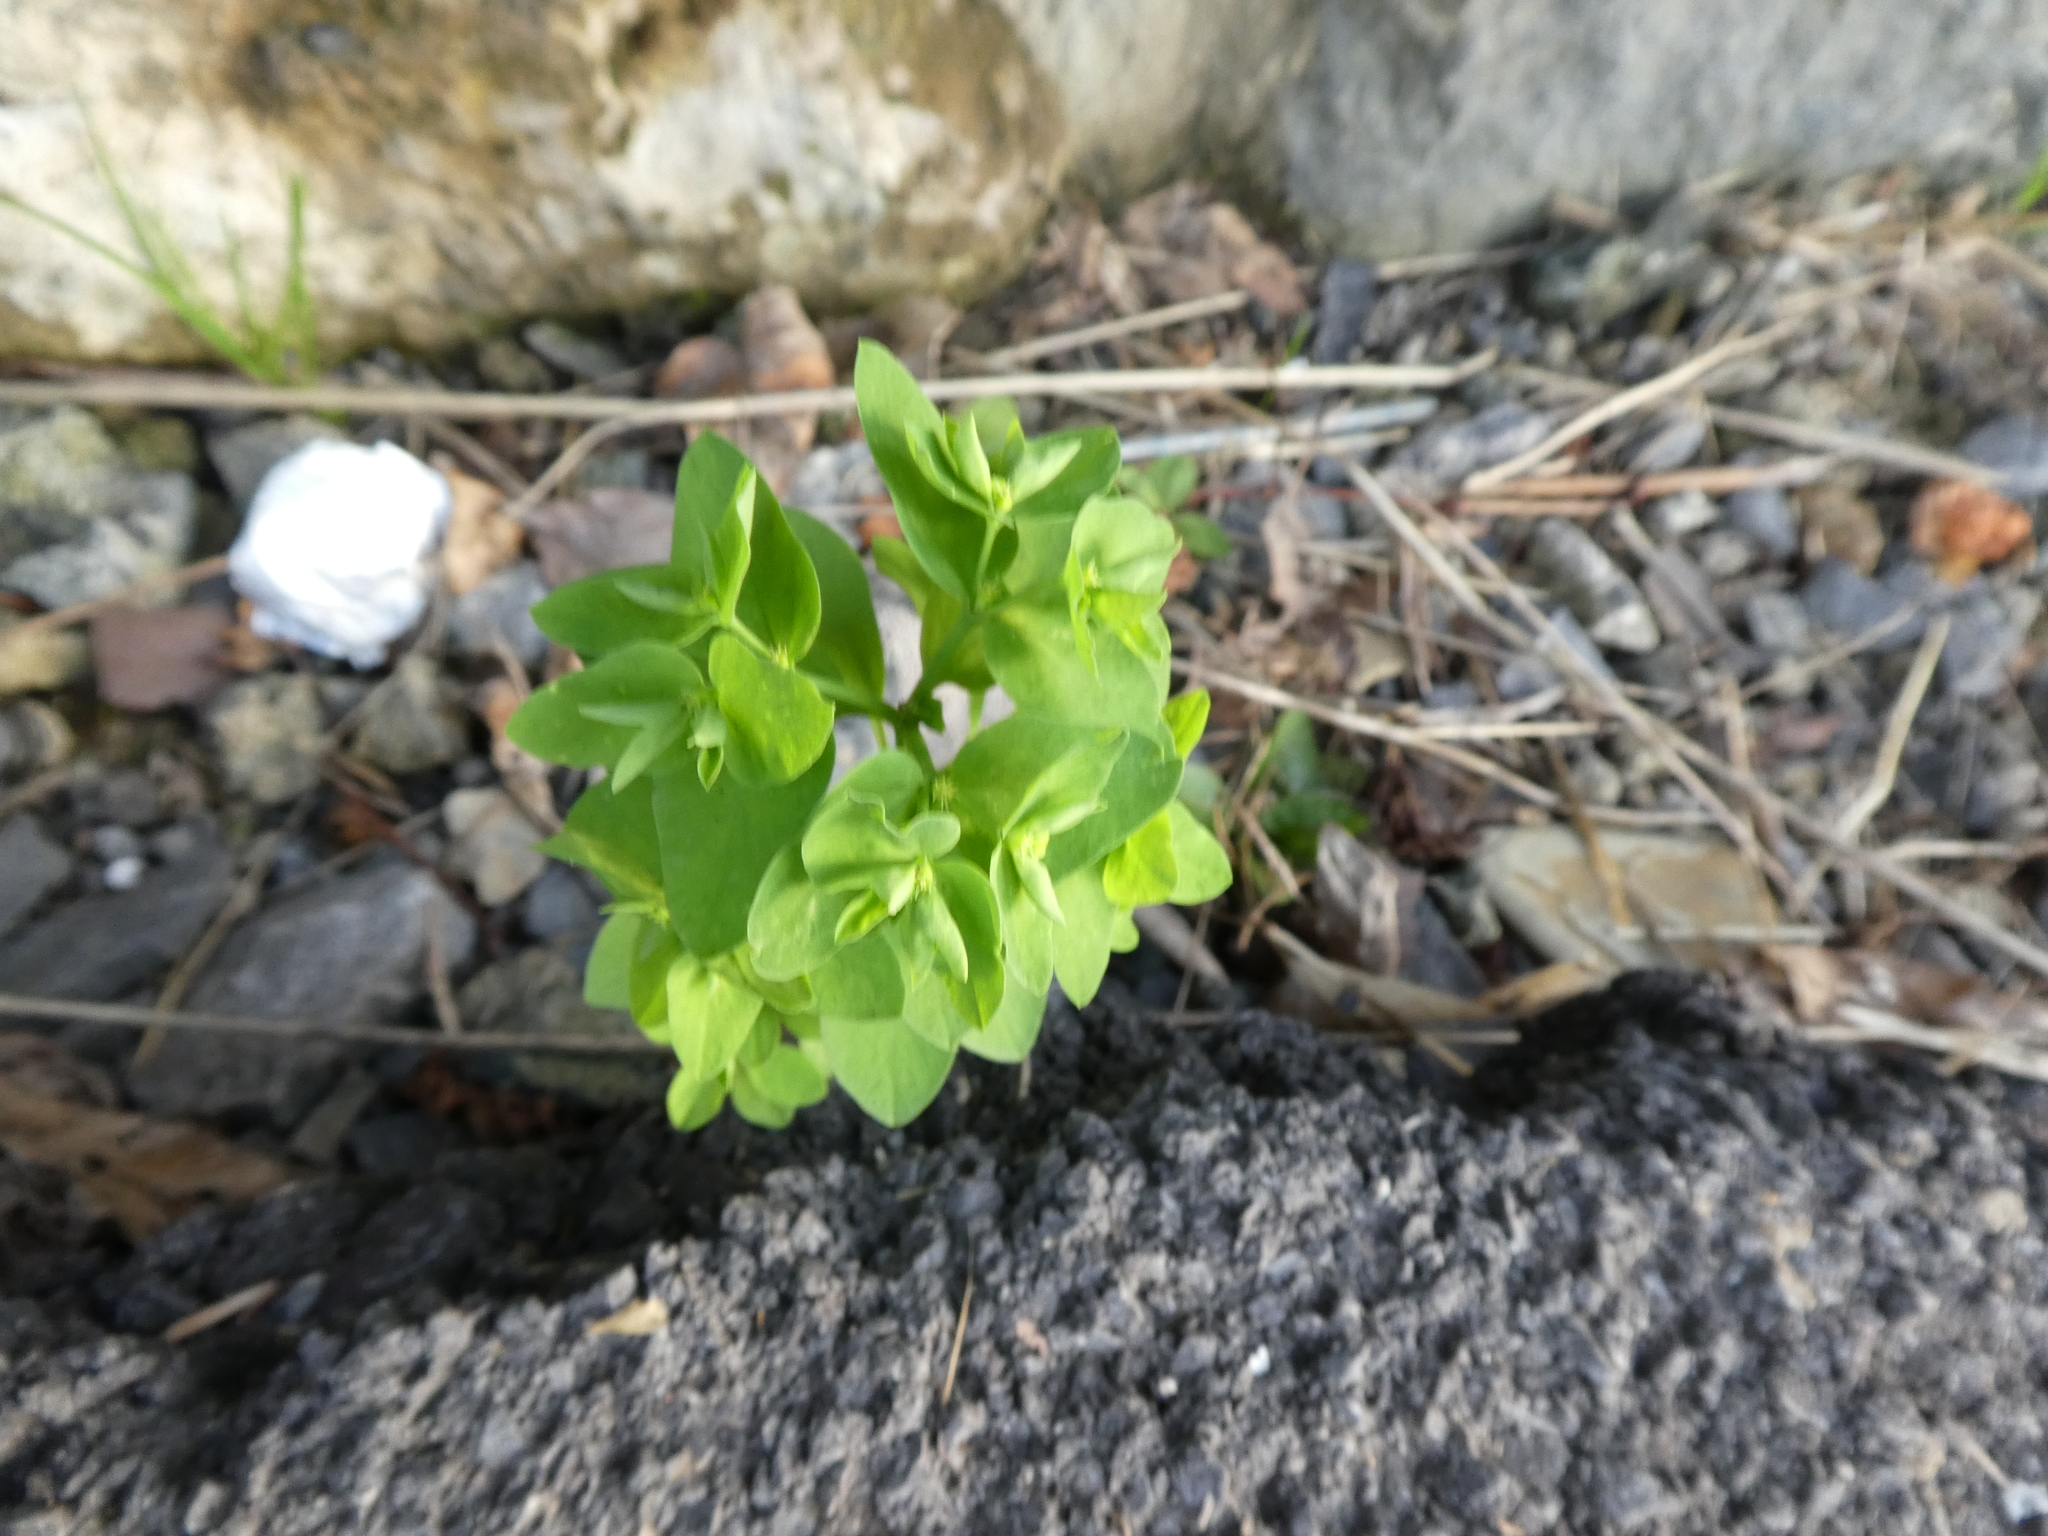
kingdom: Plantae
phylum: Tracheophyta
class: Magnoliopsida
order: Malpighiales
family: Euphorbiaceae
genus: Euphorbia
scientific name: Euphorbia peplus
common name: Petty spurge
